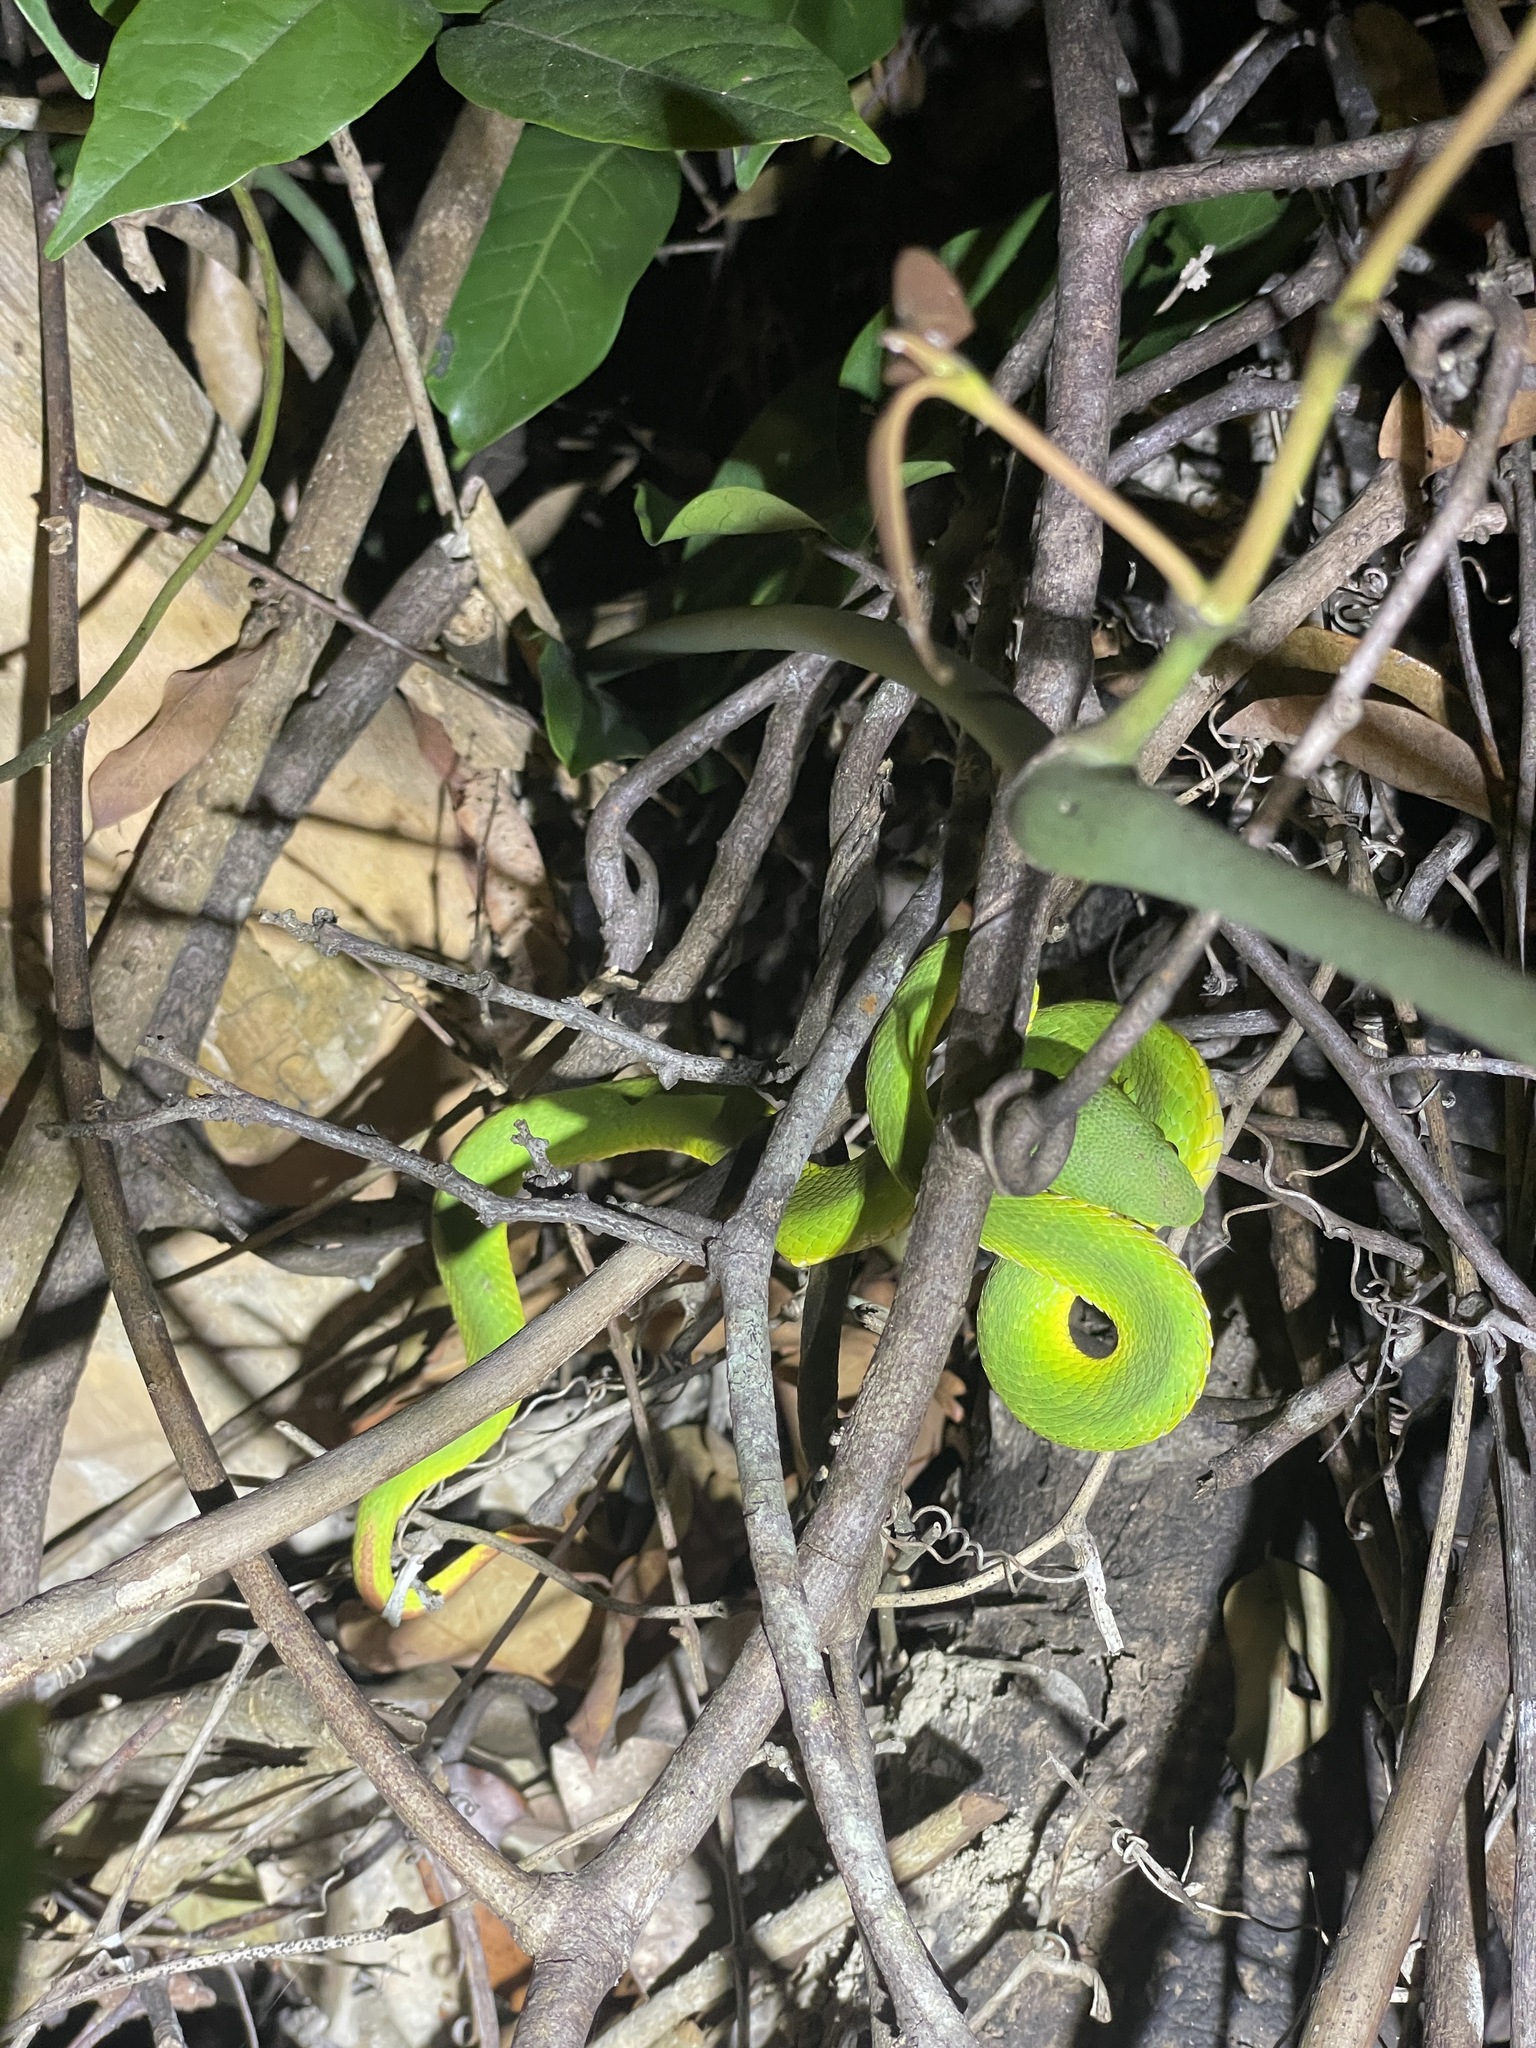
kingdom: Animalia
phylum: Chordata
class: Squamata
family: Viperidae
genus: Trimeresurus
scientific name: Trimeresurus albolabris
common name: White-lipped pitviper
